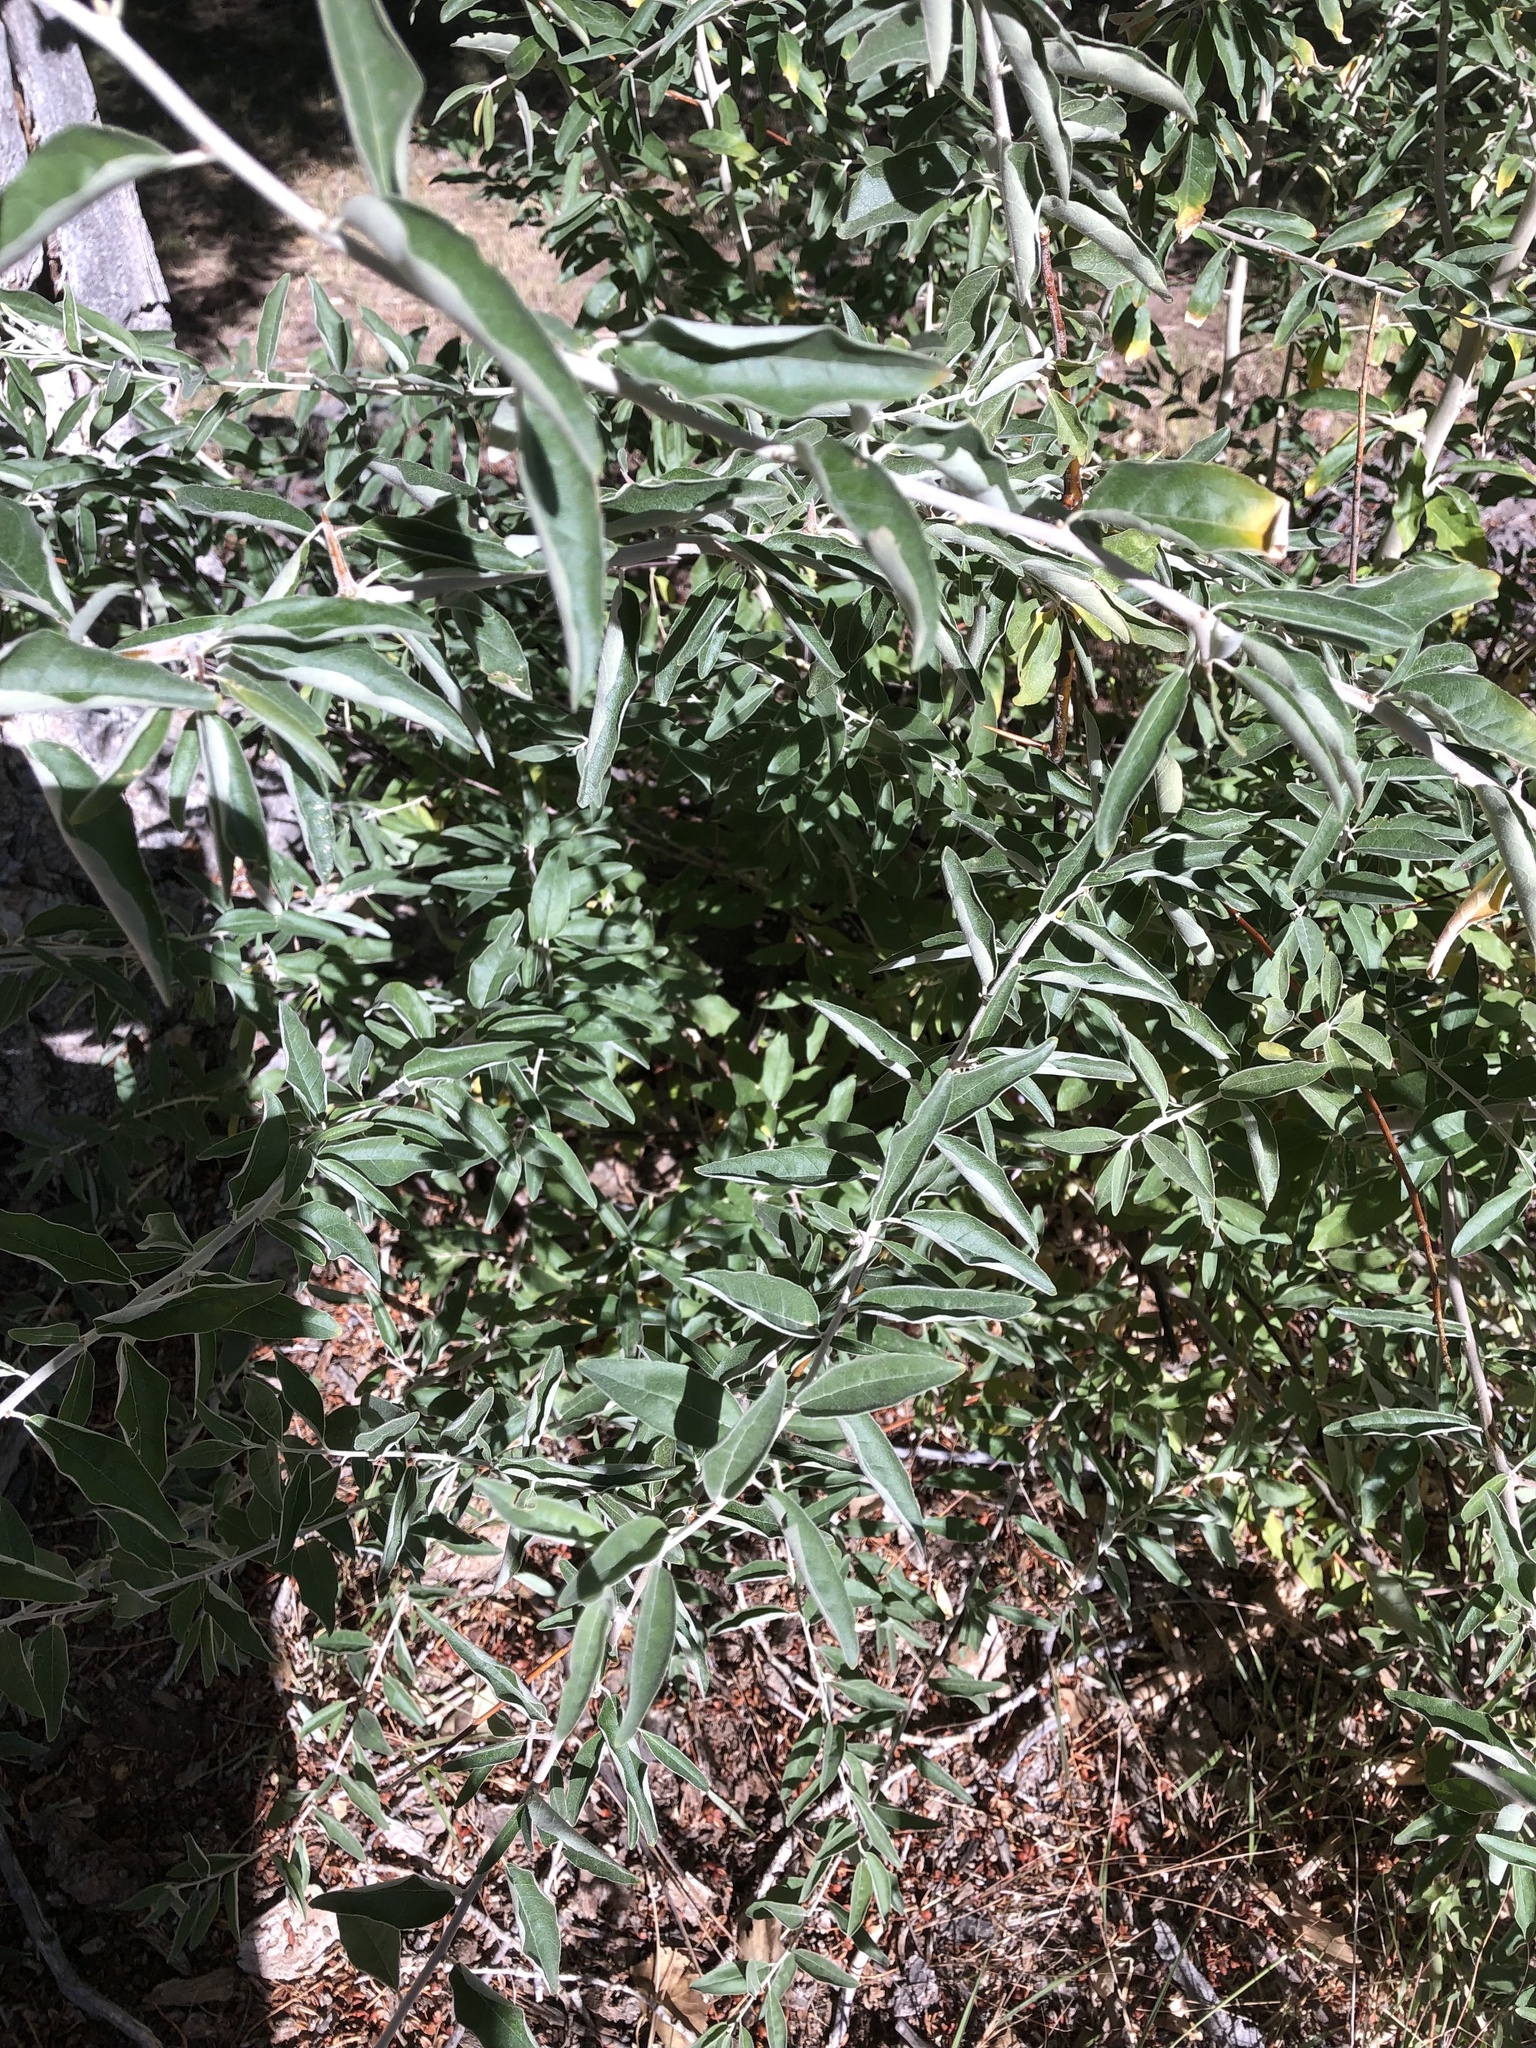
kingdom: Plantae
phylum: Tracheophyta
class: Magnoliopsida
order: Rosales
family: Elaeagnaceae
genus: Elaeagnus
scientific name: Elaeagnus angustifolia
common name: Russian olive
